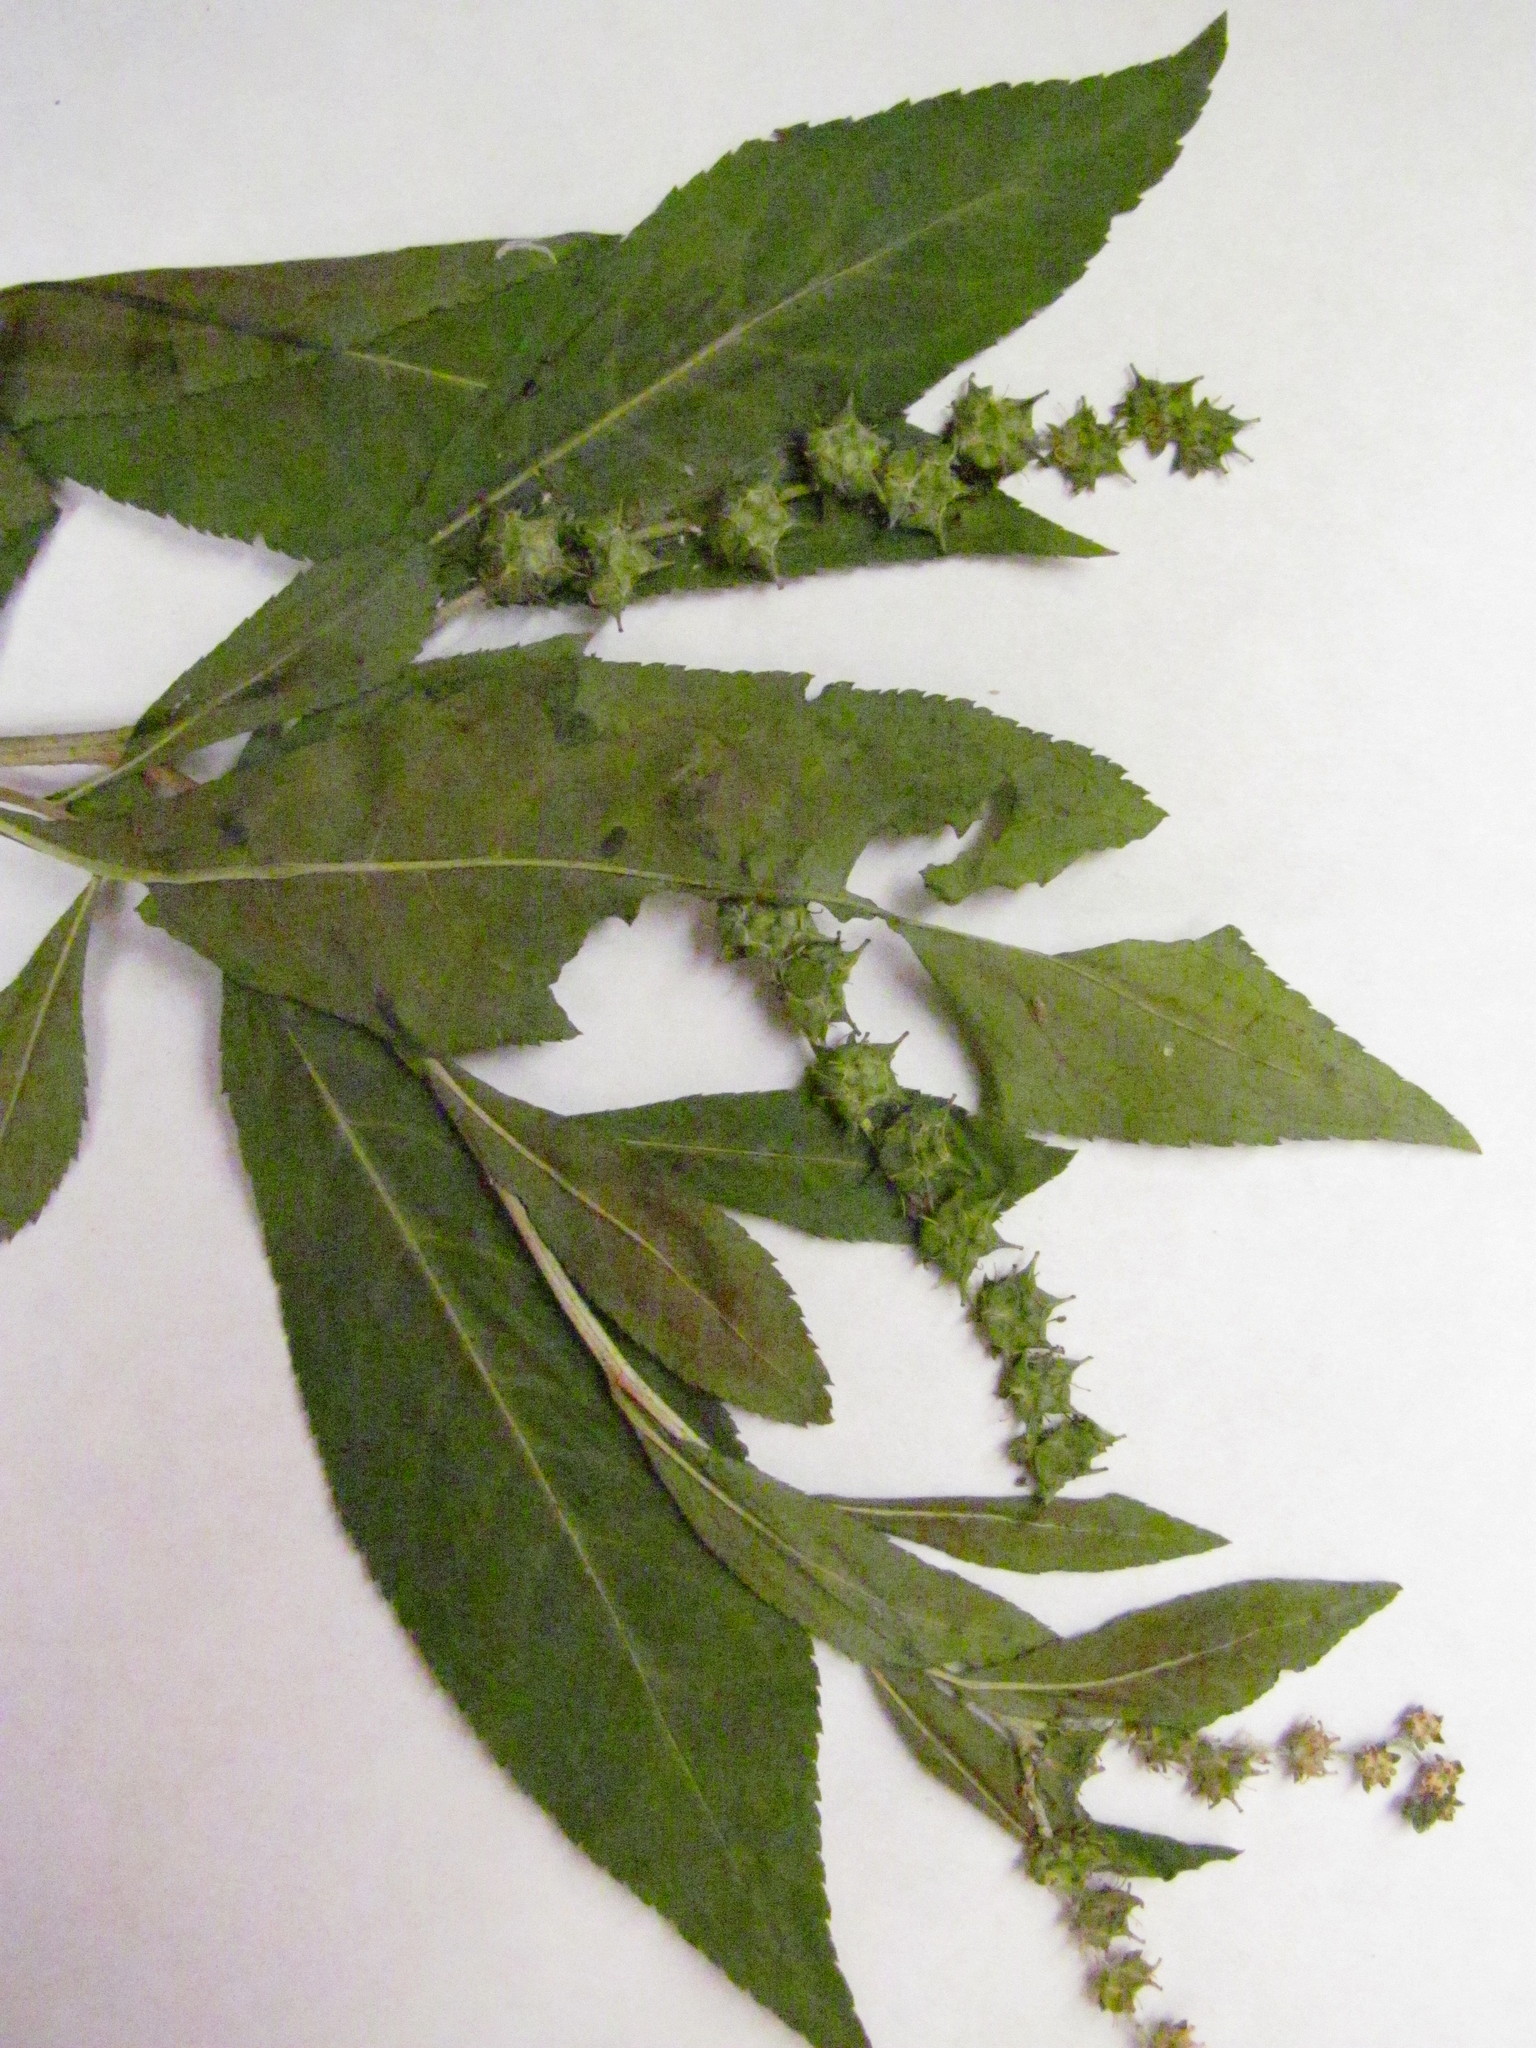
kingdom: Plantae
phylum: Tracheophyta
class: Magnoliopsida
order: Saxifragales
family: Penthoraceae
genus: Penthorum
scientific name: Penthorum sedoides
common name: Ditch stonecrop
